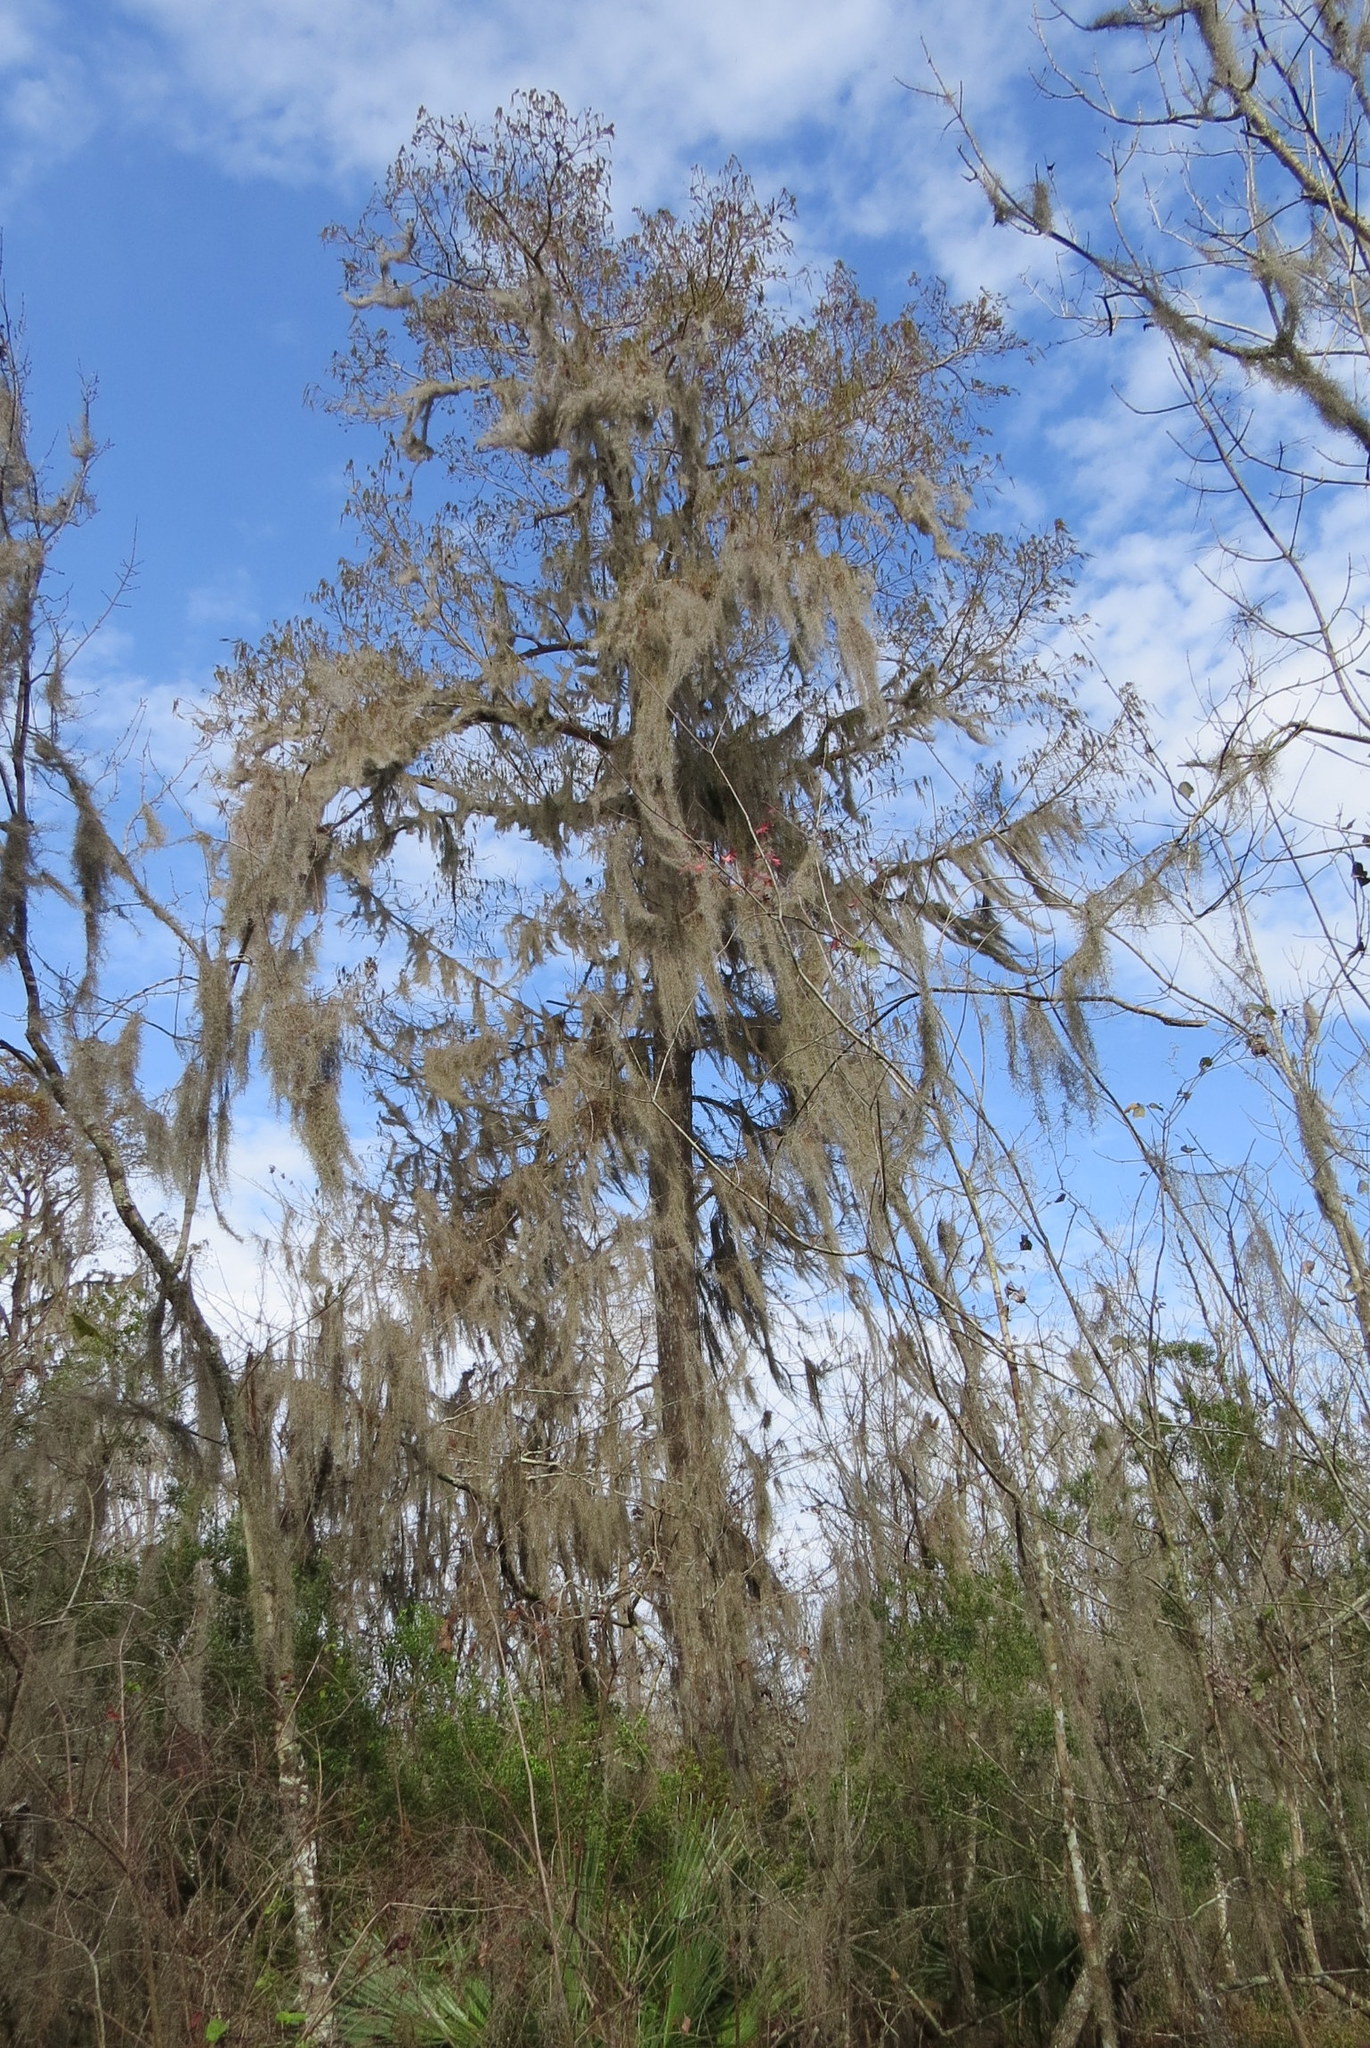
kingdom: Plantae
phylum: Tracheophyta
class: Pinopsida
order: Pinales
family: Cupressaceae
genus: Taxodium
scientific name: Taxodium distichum
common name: Bald cypress
